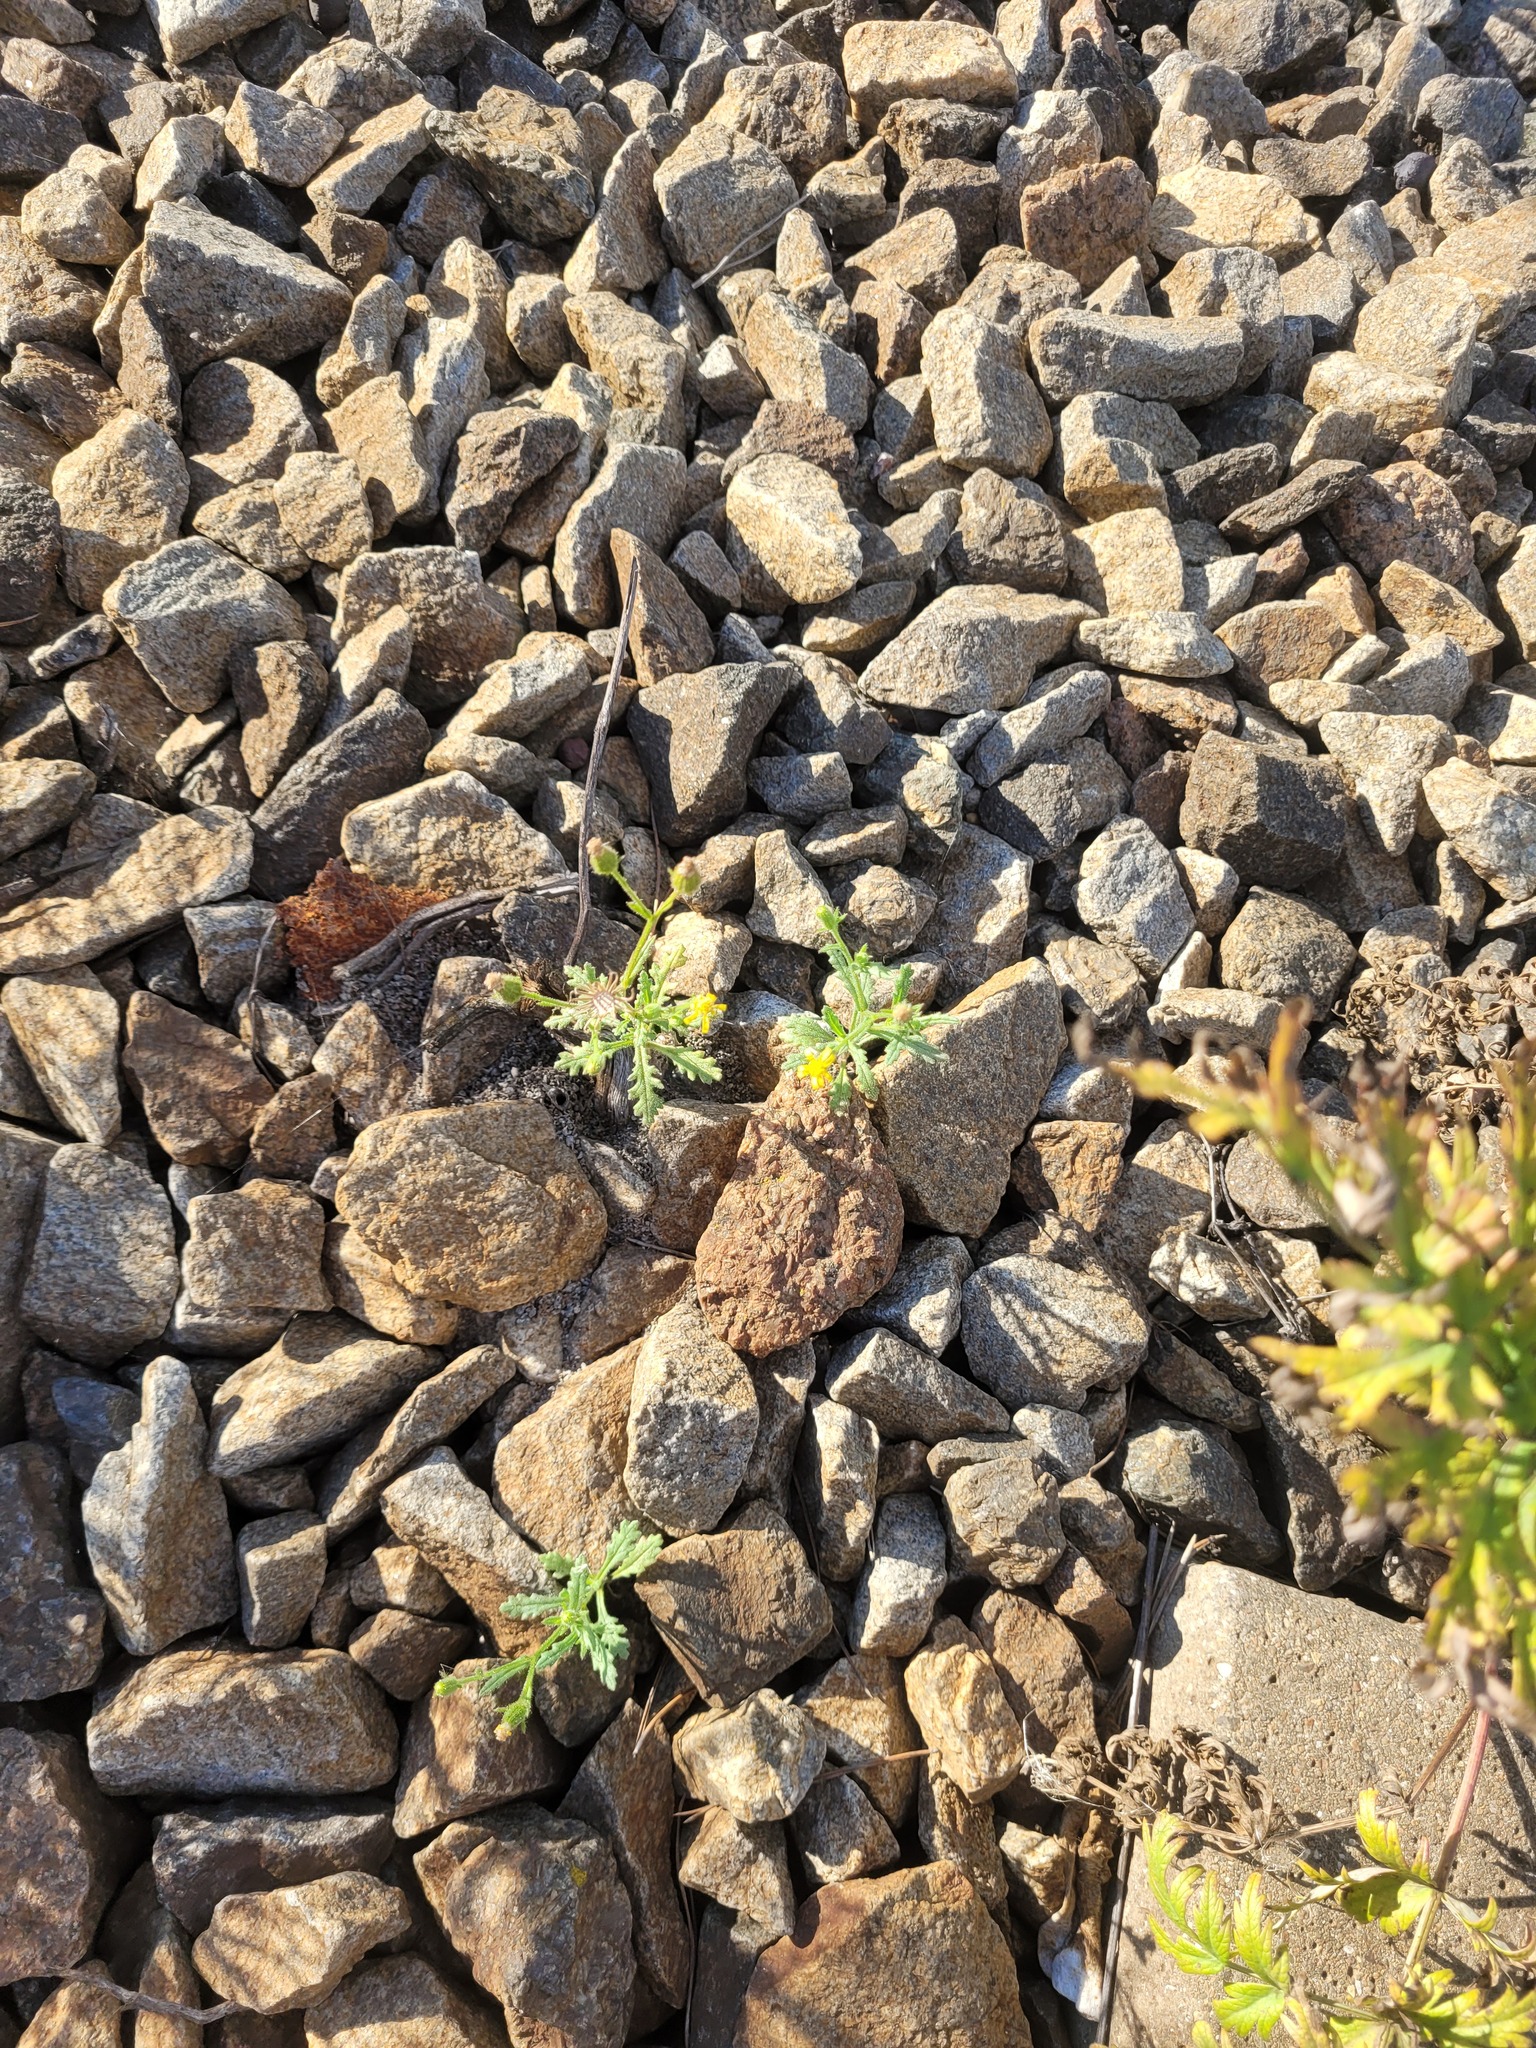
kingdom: Plantae
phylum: Tracheophyta
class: Magnoliopsida
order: Asterales
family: Asteraceae
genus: Senecio
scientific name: Senecio viscosus
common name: Sticky groundsel
